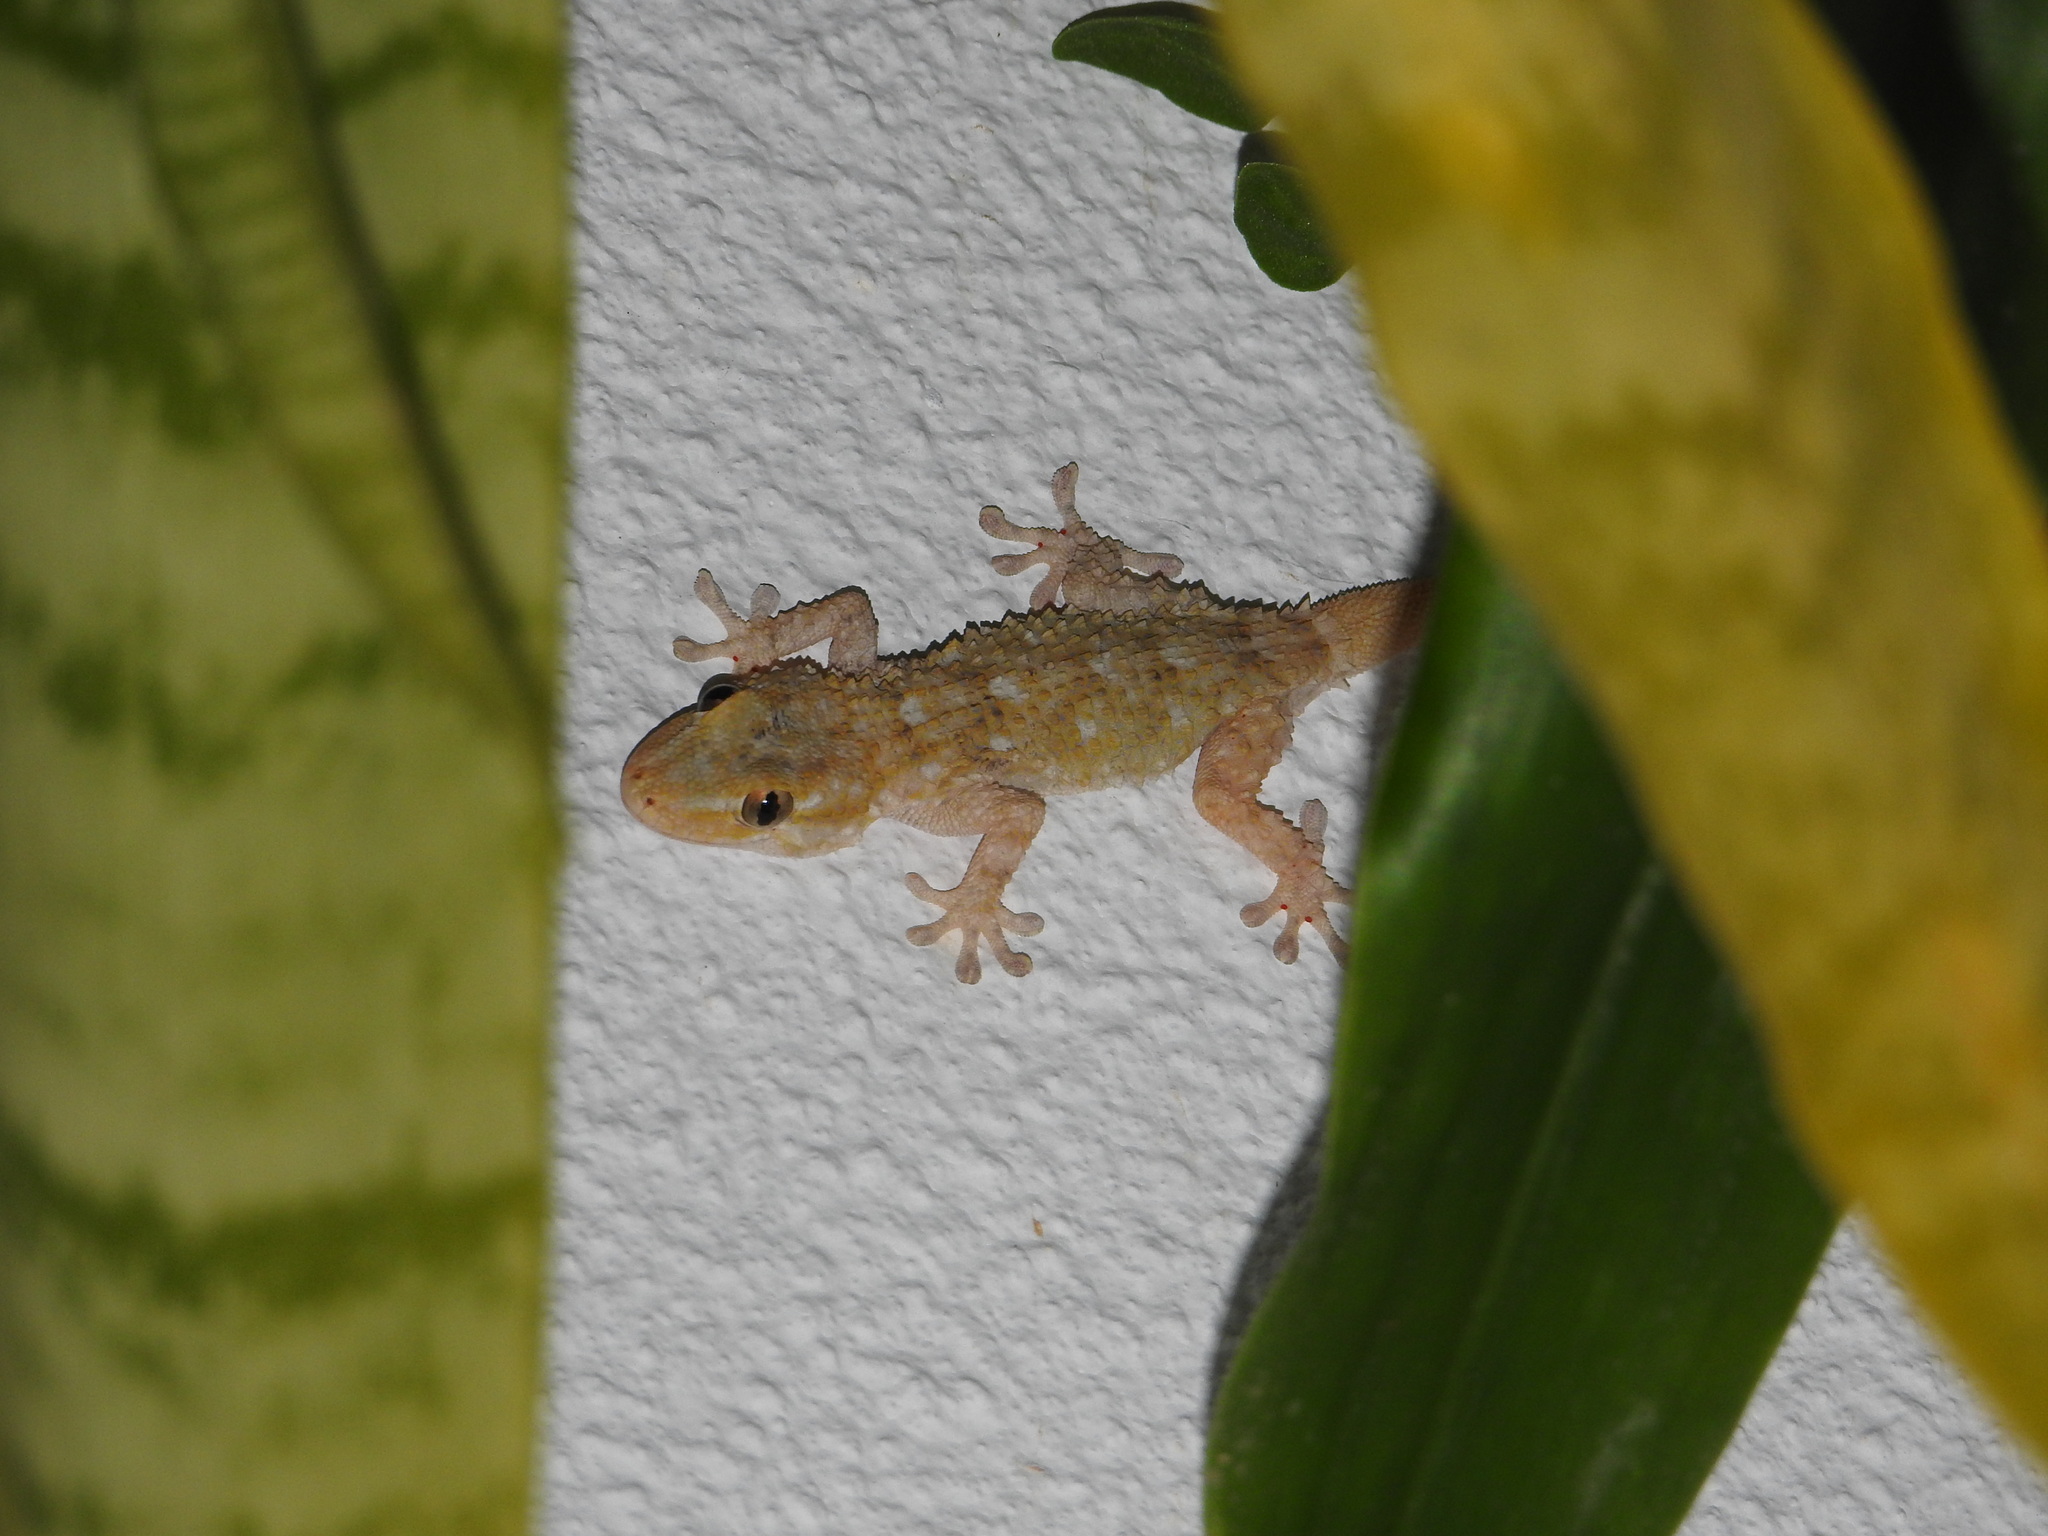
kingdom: Animalia
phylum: Chordata
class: Squamata
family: Phyllodactylidae
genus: Tarentola
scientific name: Tarentola mauritanica
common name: Moorish gecko
